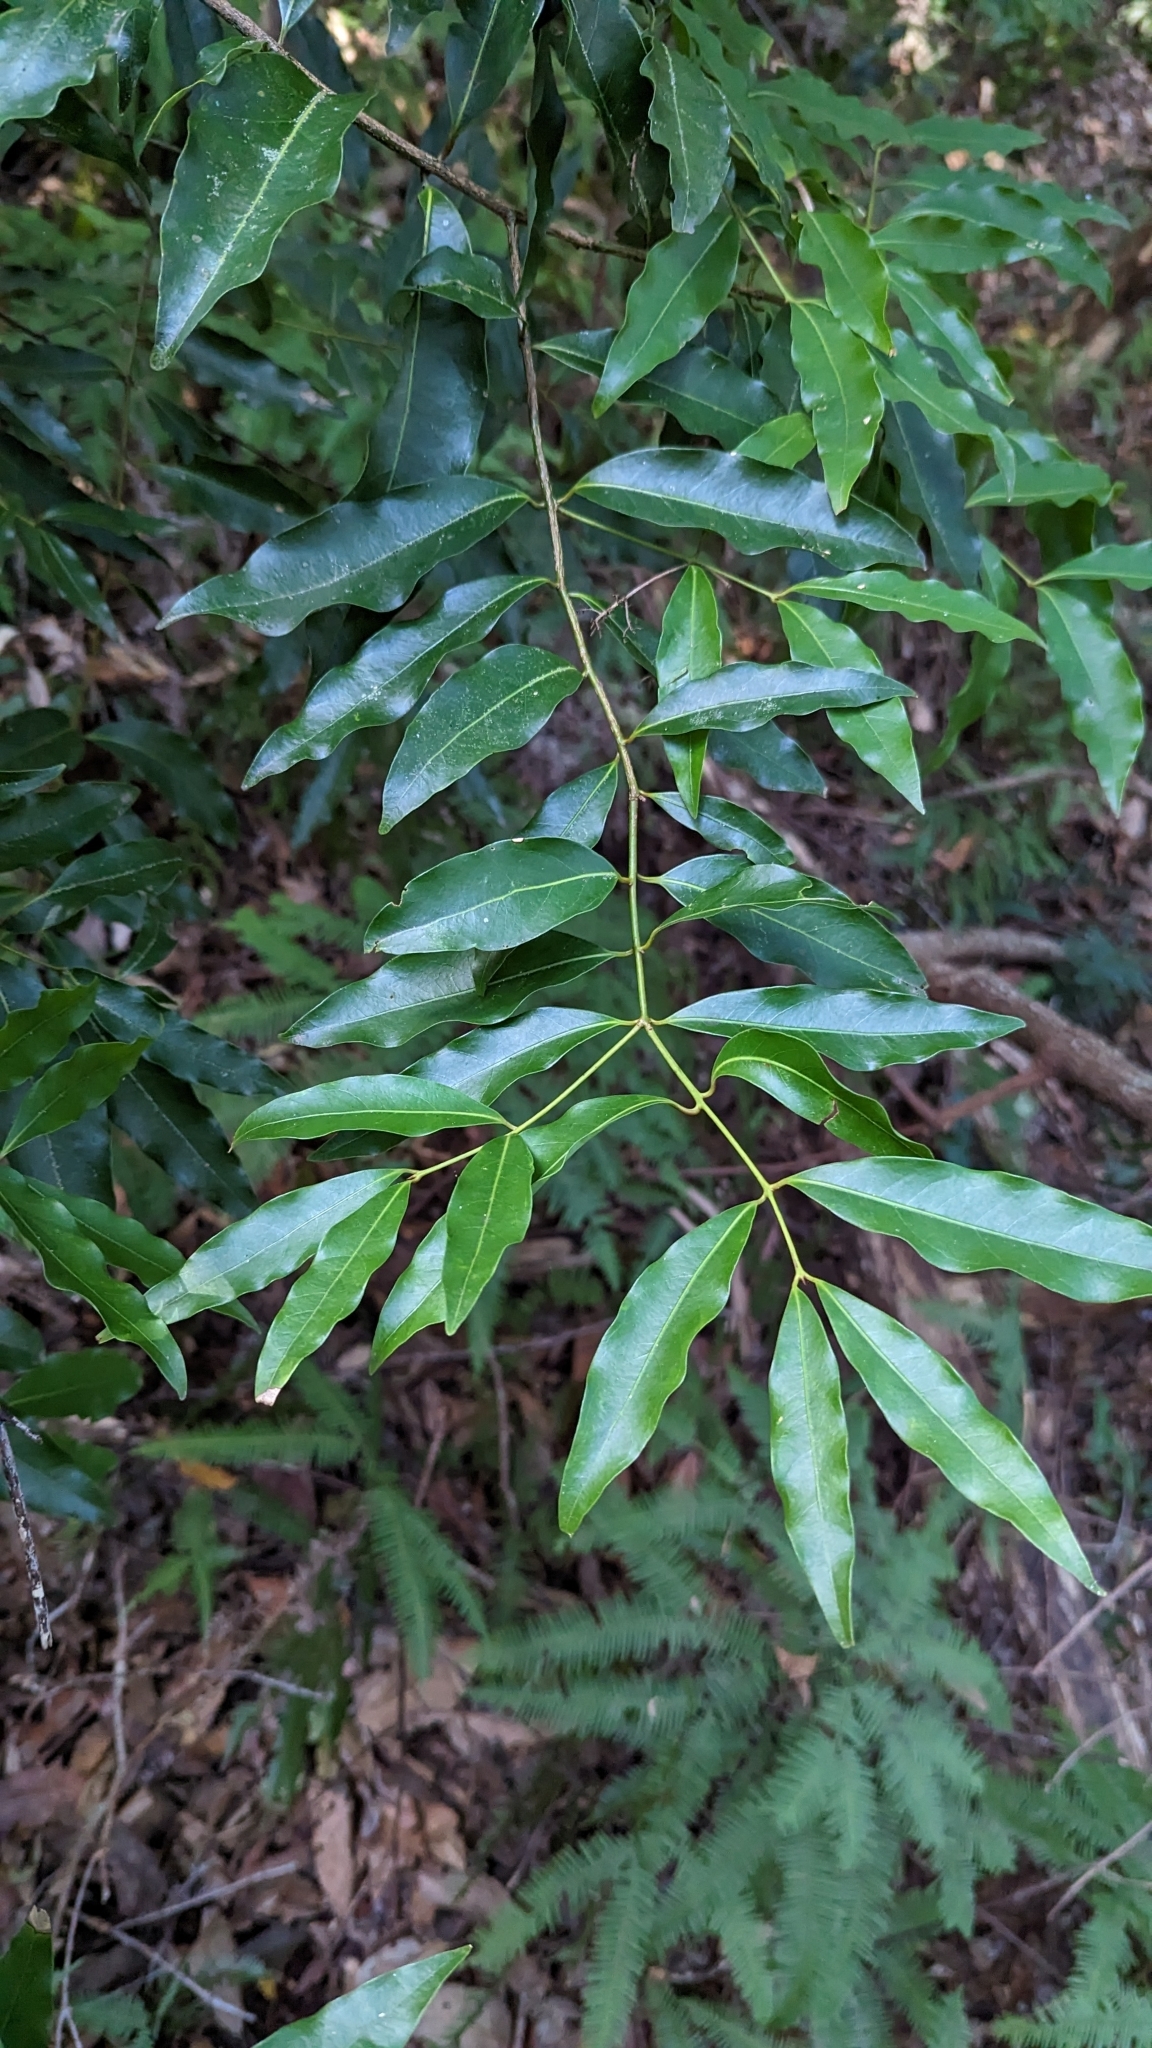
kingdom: Plantae
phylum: Tracheophyta
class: Magnoliopsida
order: Laurales
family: Lauraceae
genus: Cinnamomum
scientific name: Cinnamomum oliveri
